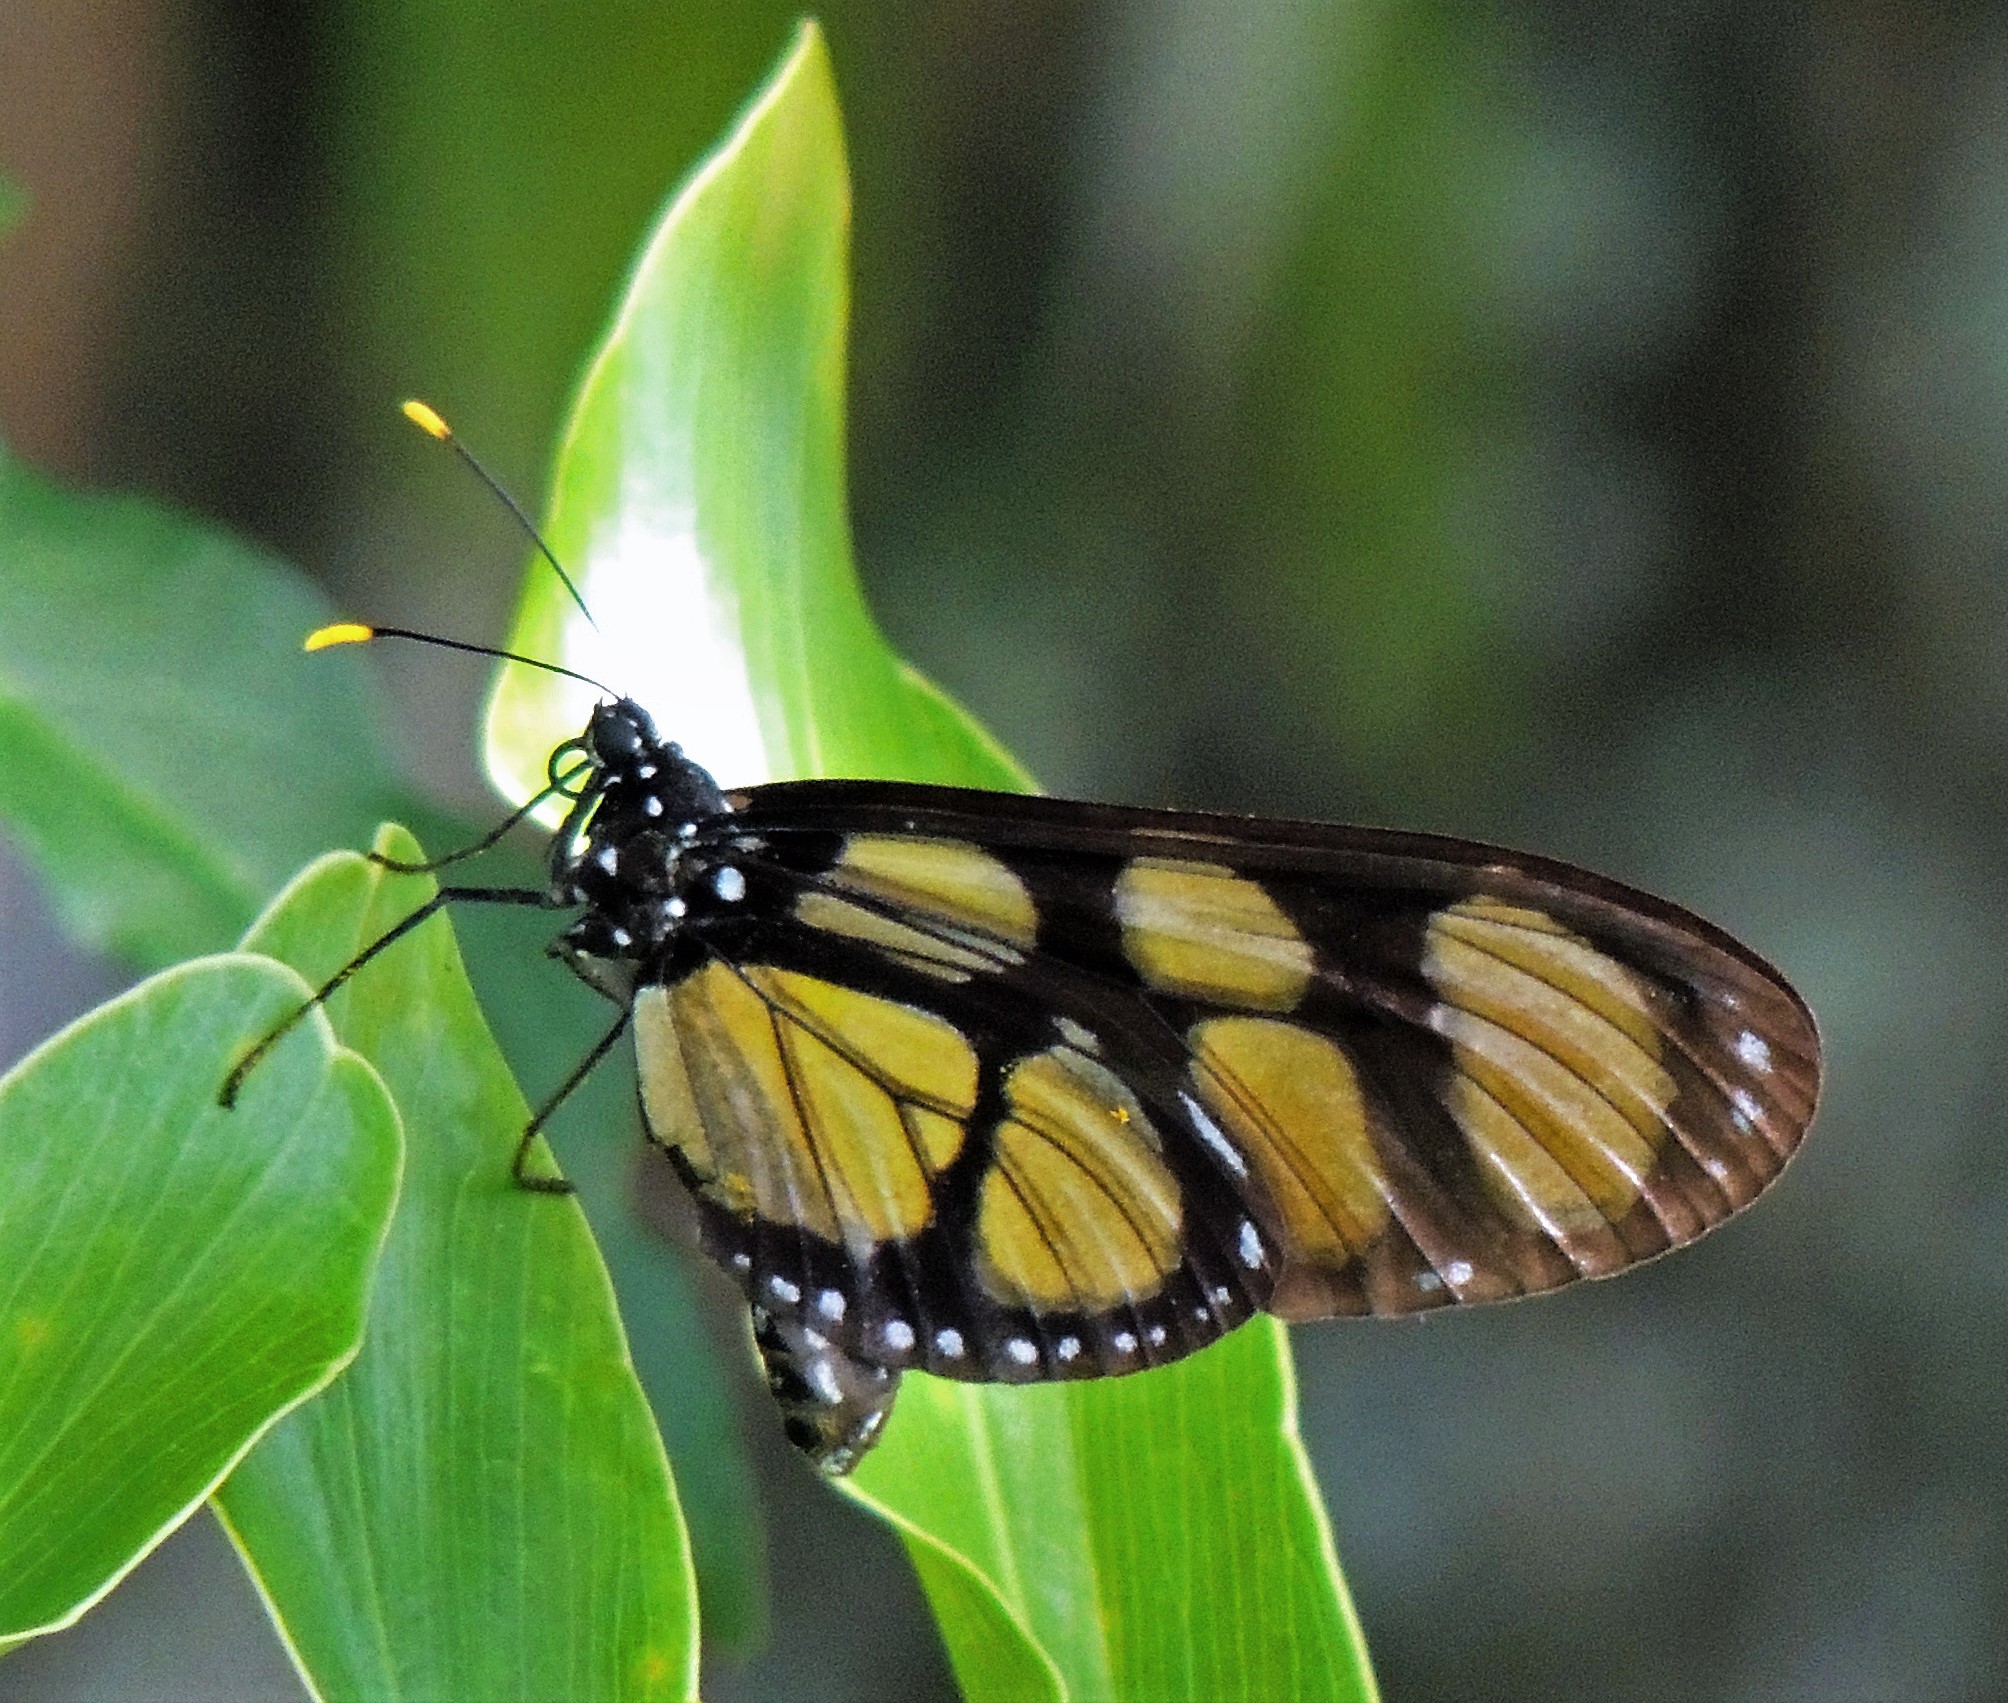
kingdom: Animalia
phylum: Arthropoda
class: Insecta
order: Lepidoptera
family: Nymphalidae
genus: Thyridia
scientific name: Thyridia psidii
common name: Melantho tigerwing
